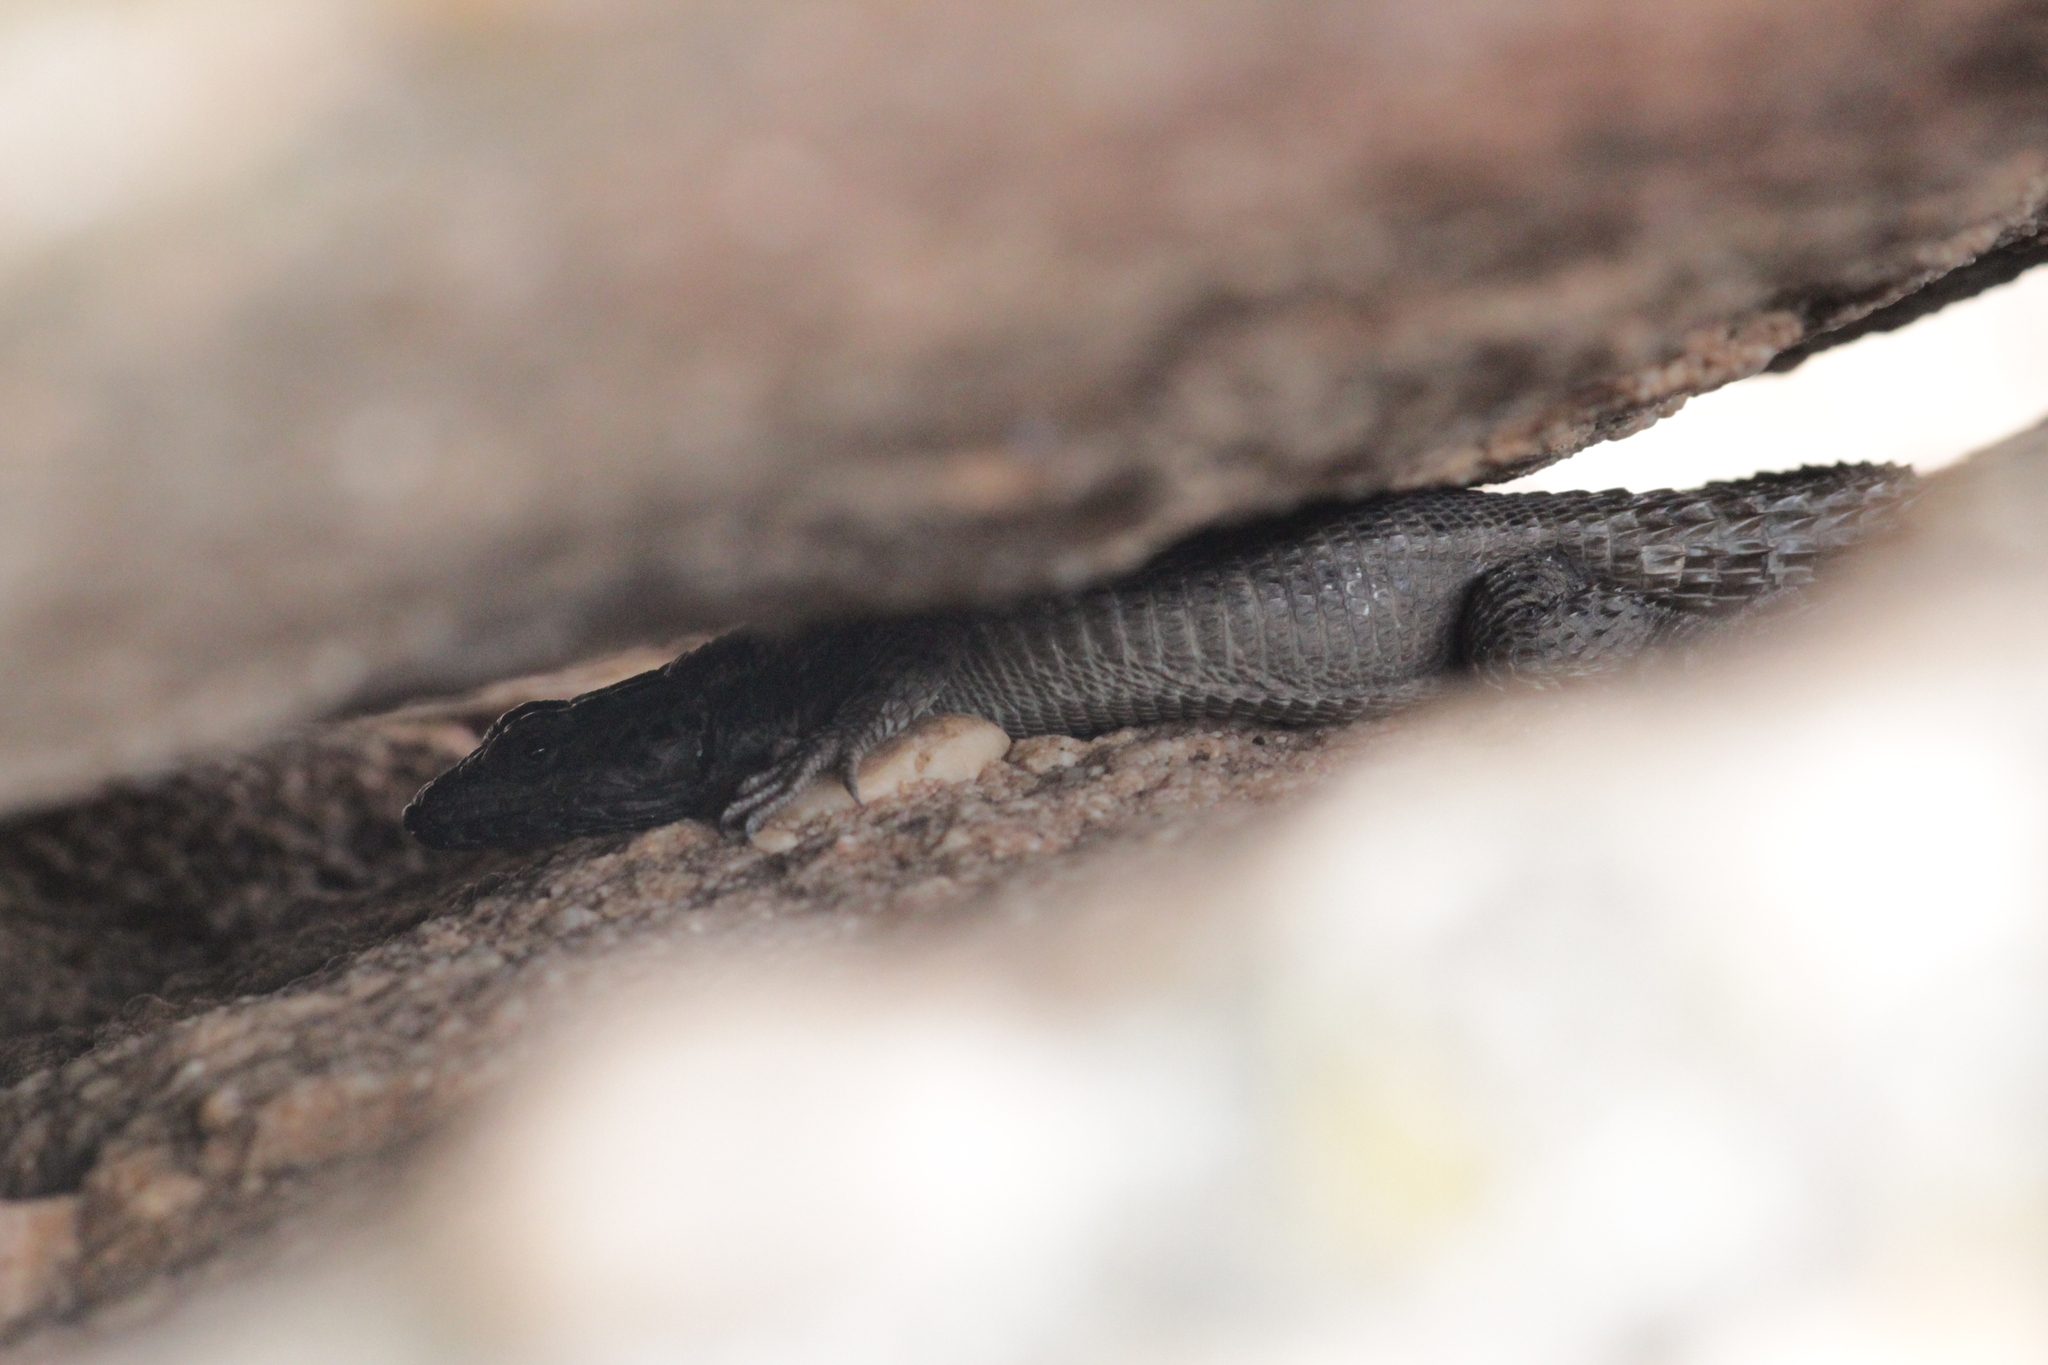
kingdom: Animalia
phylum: Chordata
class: Squamata
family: Cordylidae
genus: Karusasaurus
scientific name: Karusasaurus polyzonus
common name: Karoo girdled lizard
